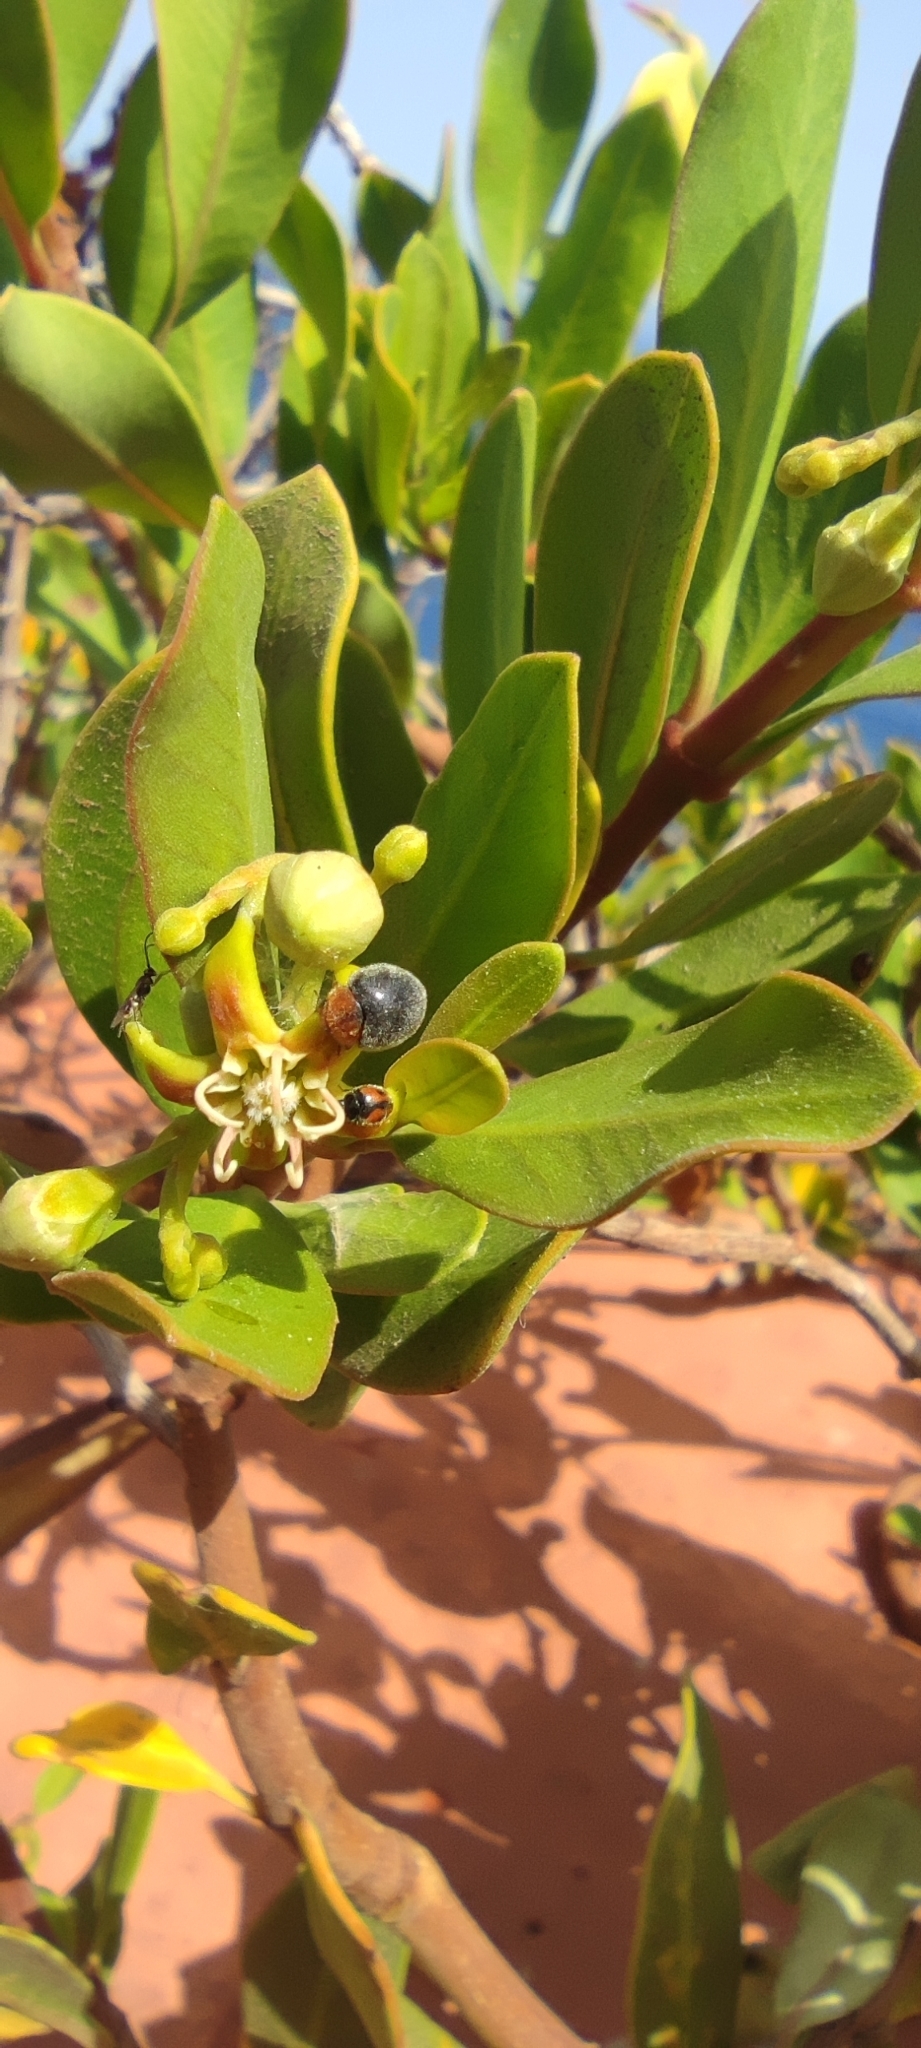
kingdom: Plantae
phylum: Tracheophyta
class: Magnoliopsida
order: Gentianales
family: Apocynaceae
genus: Periploca
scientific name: Periploca laevigata
